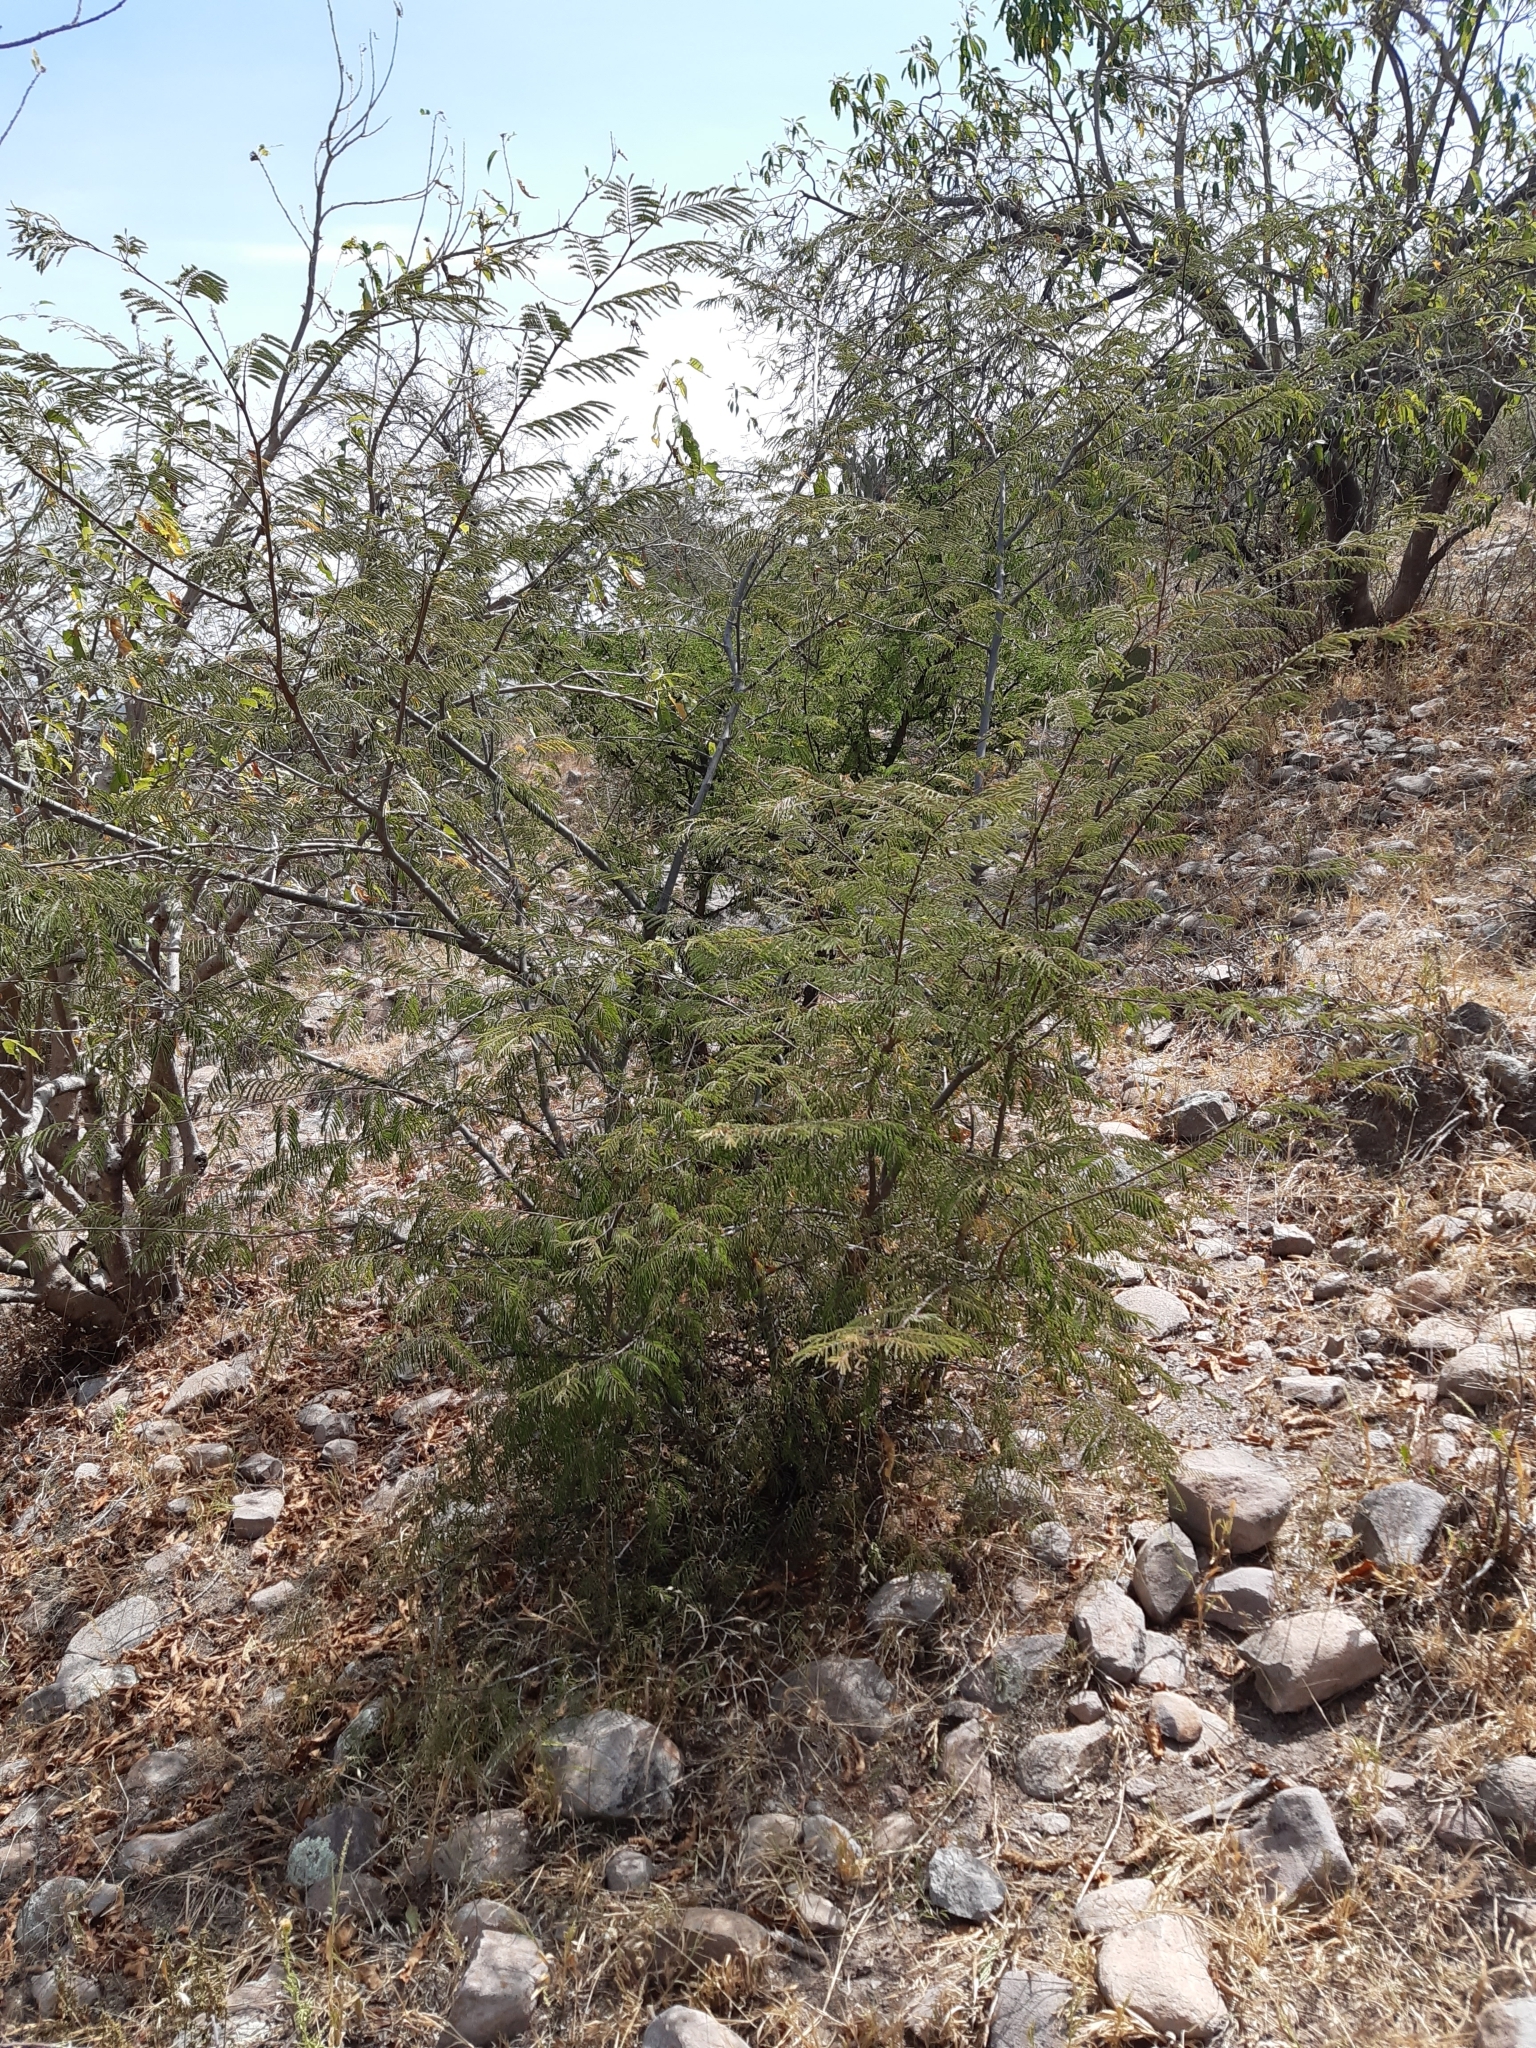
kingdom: Plantae
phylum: Tracheophyta
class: Magnoliopsida
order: Fabales
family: Fabaceae
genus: Lysiloma
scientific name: Lysiloma divaricatum
